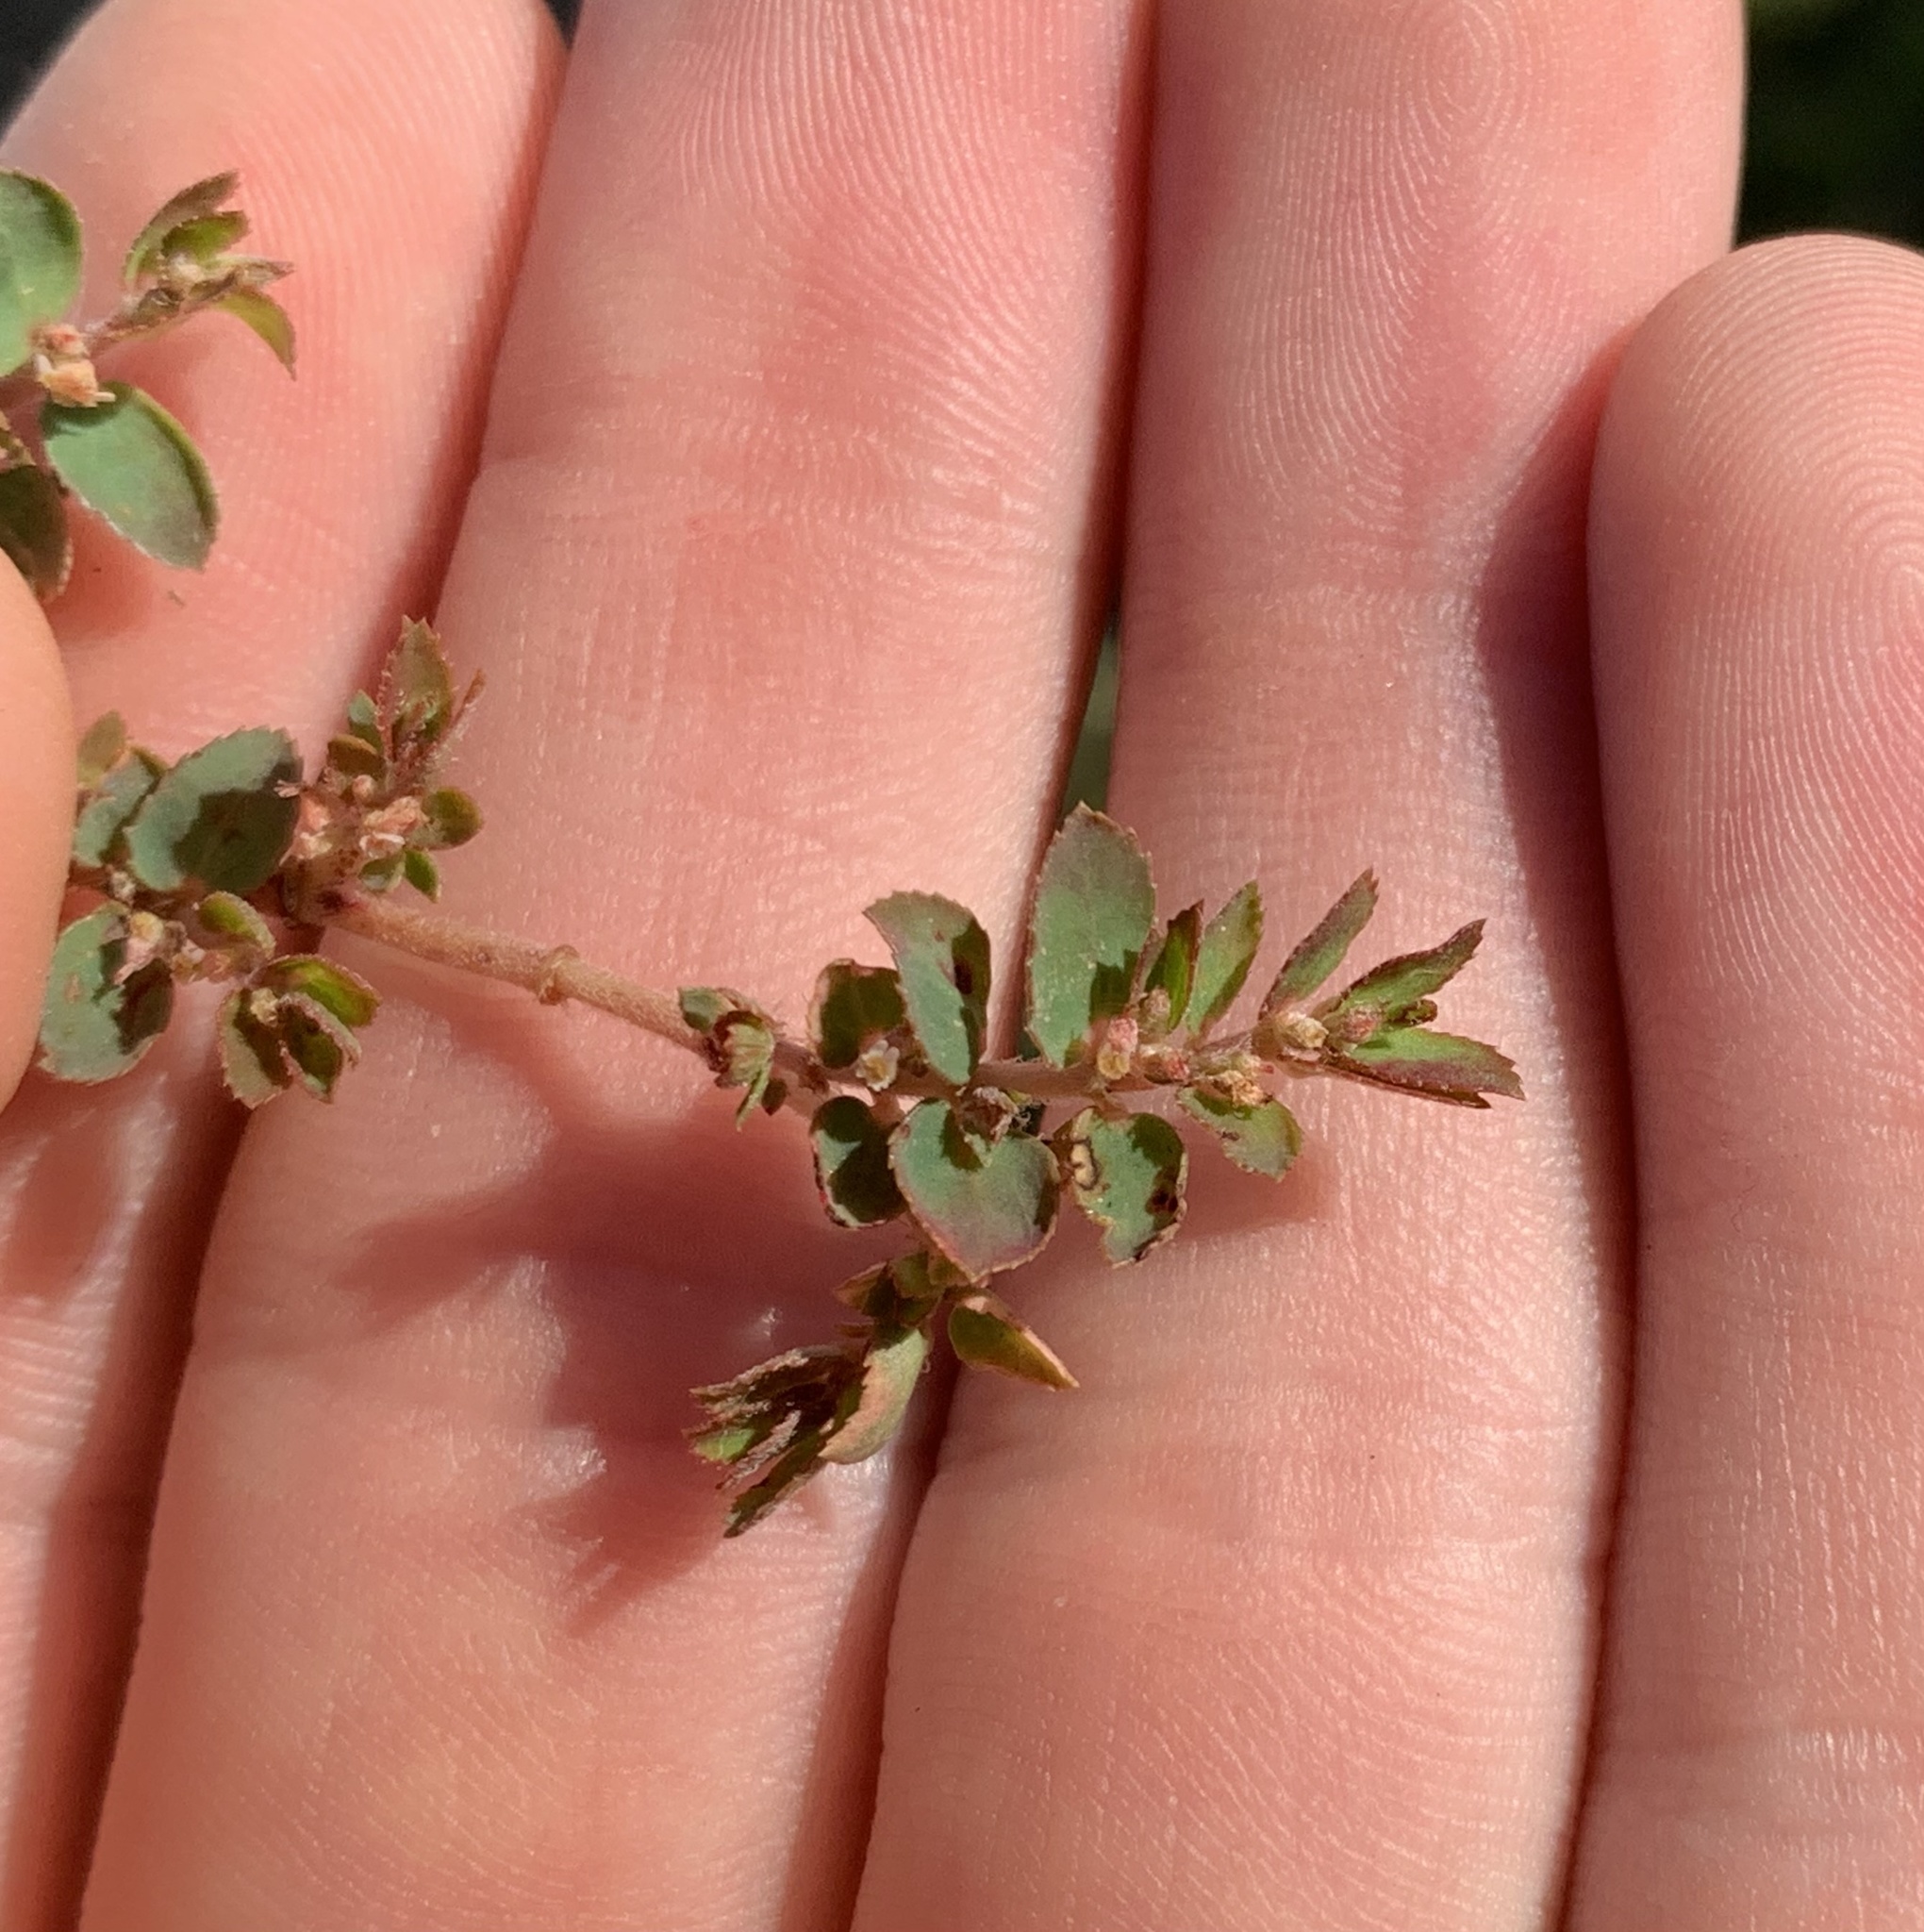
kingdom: Plantae
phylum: Tracheophyta
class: Magnoliopsida
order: Malpighiales
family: Euphorbiaceae
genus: Euphorbia
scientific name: Euphorbia thymifolia
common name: Gulf sandmat
